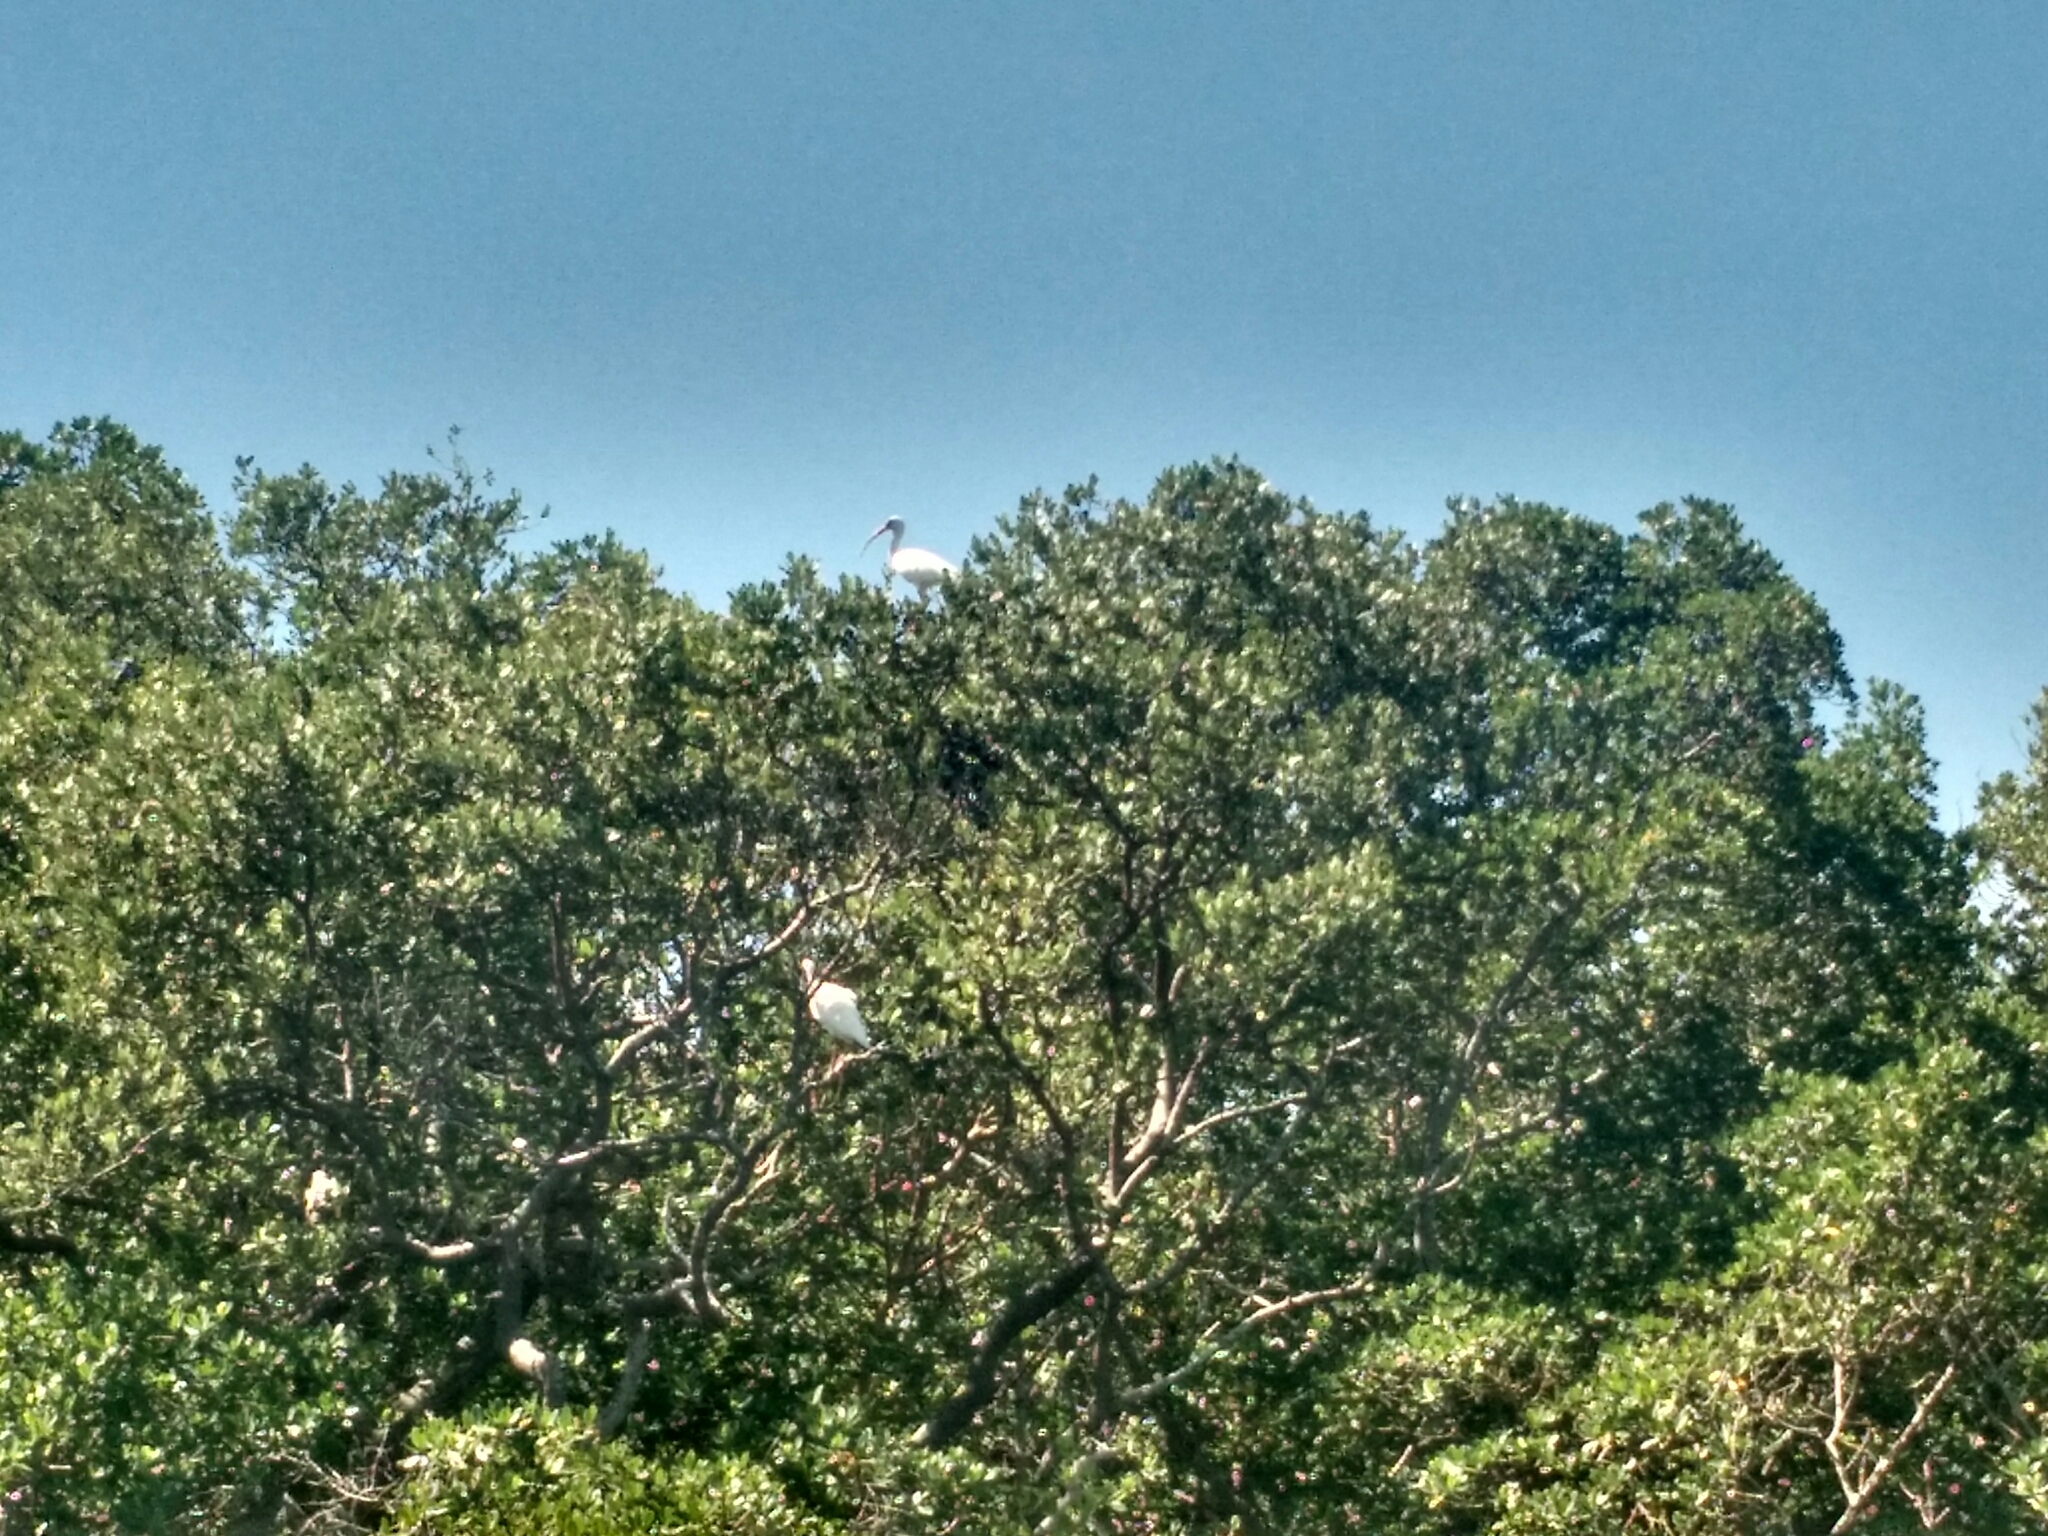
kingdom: Animalia
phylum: Chordata
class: Aves
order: Pelecaniformes
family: Threskiornithidae
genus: Eudocimus
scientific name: Eudocimus albus
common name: White ibis
